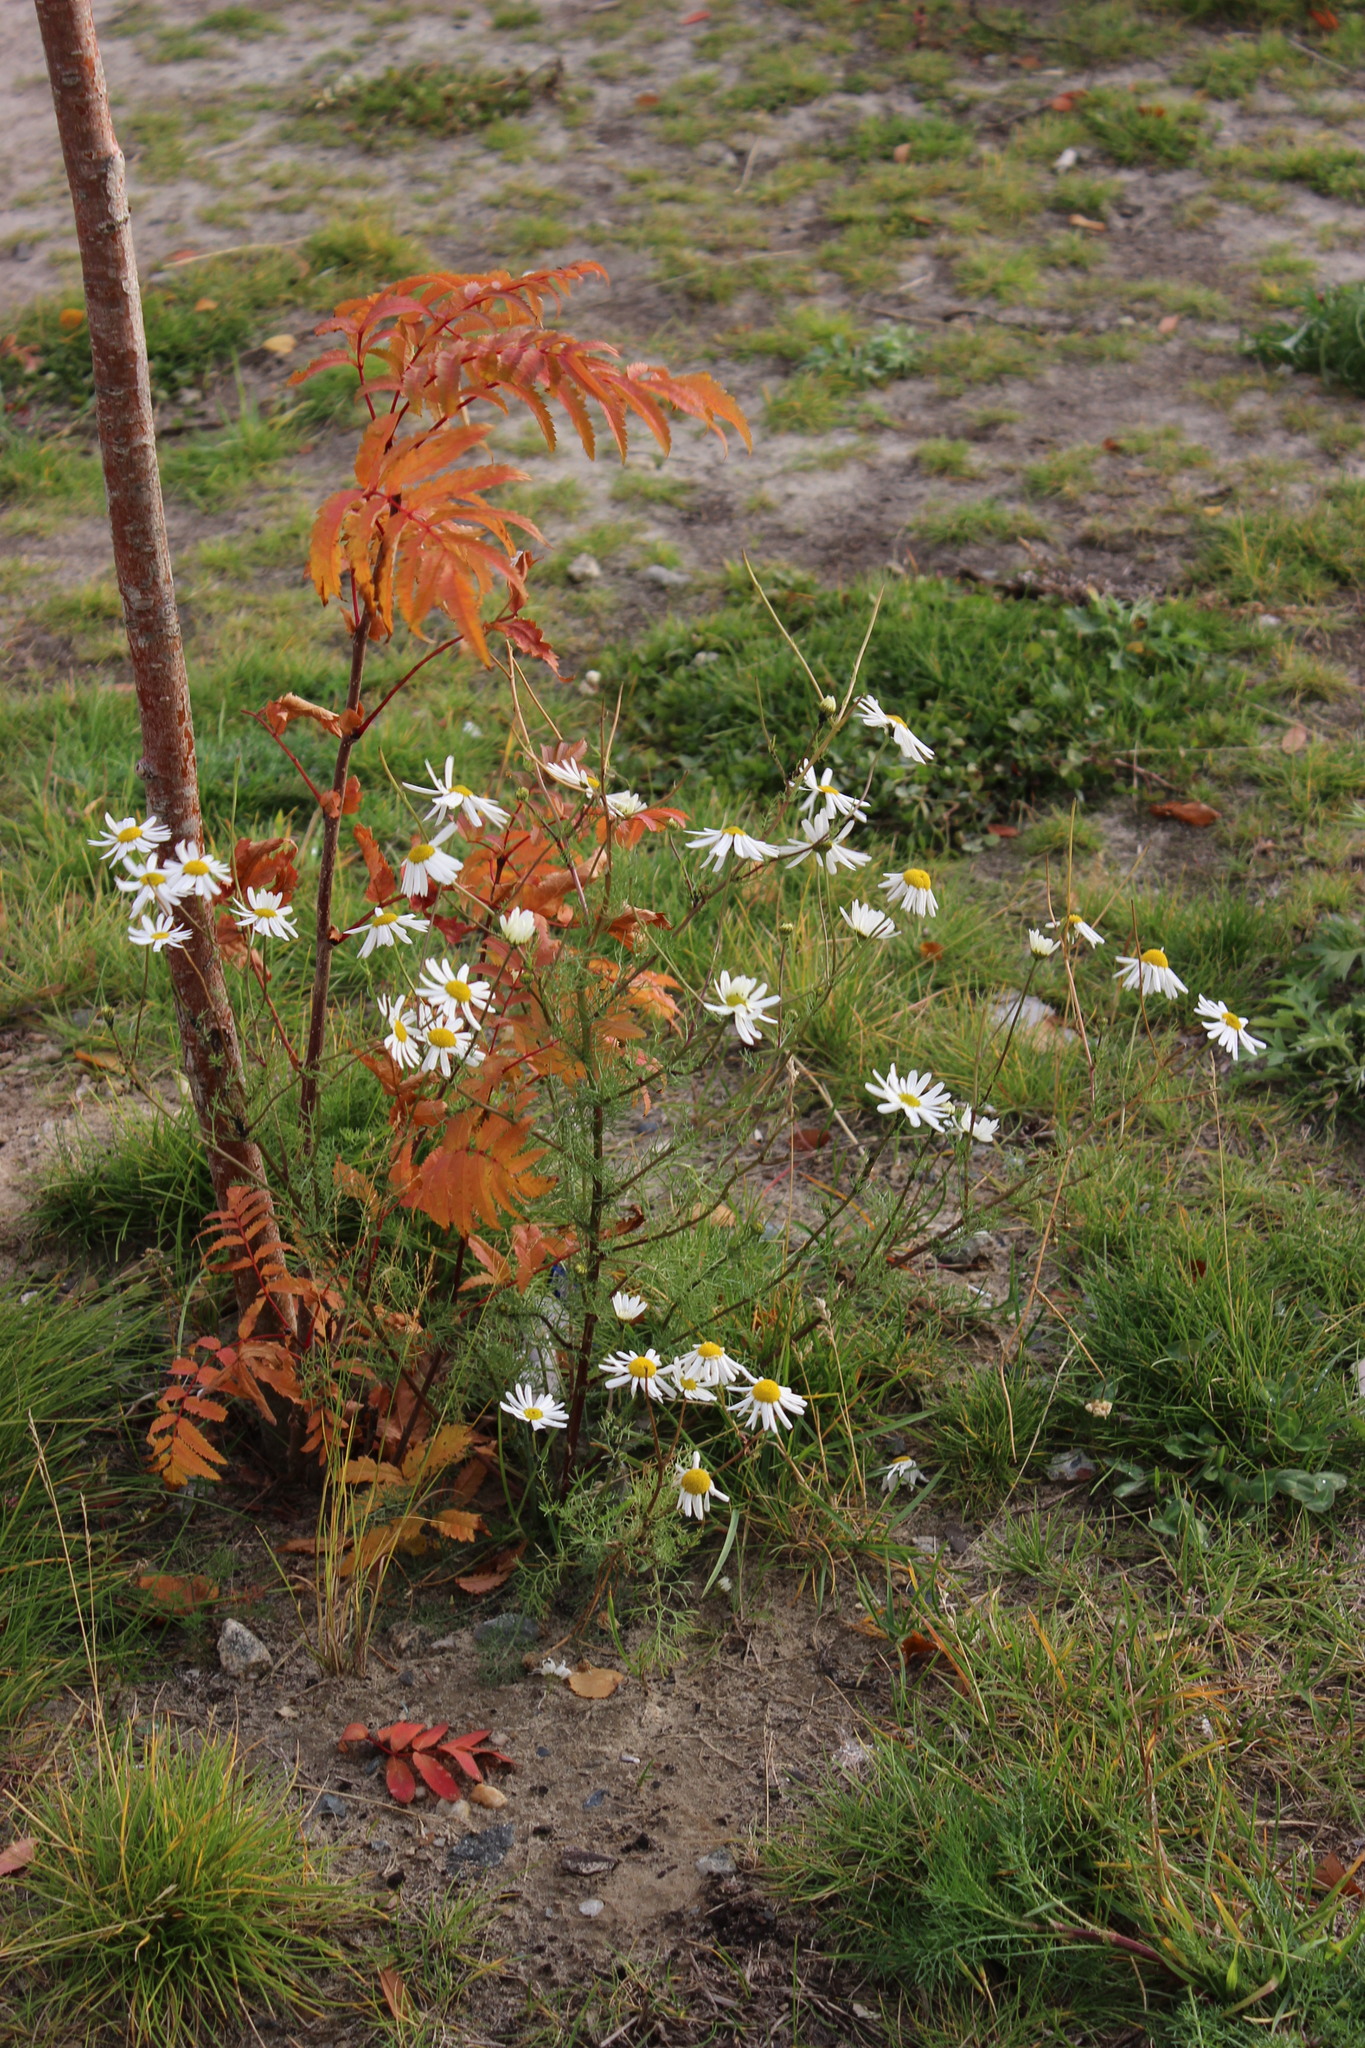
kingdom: Plantae
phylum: Tracheophyta
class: Magnoliopsida
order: Asterales
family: Asteraceae
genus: Tripleurospermum
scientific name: Tripleurospermum inodorum
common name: Scentless mayweed
